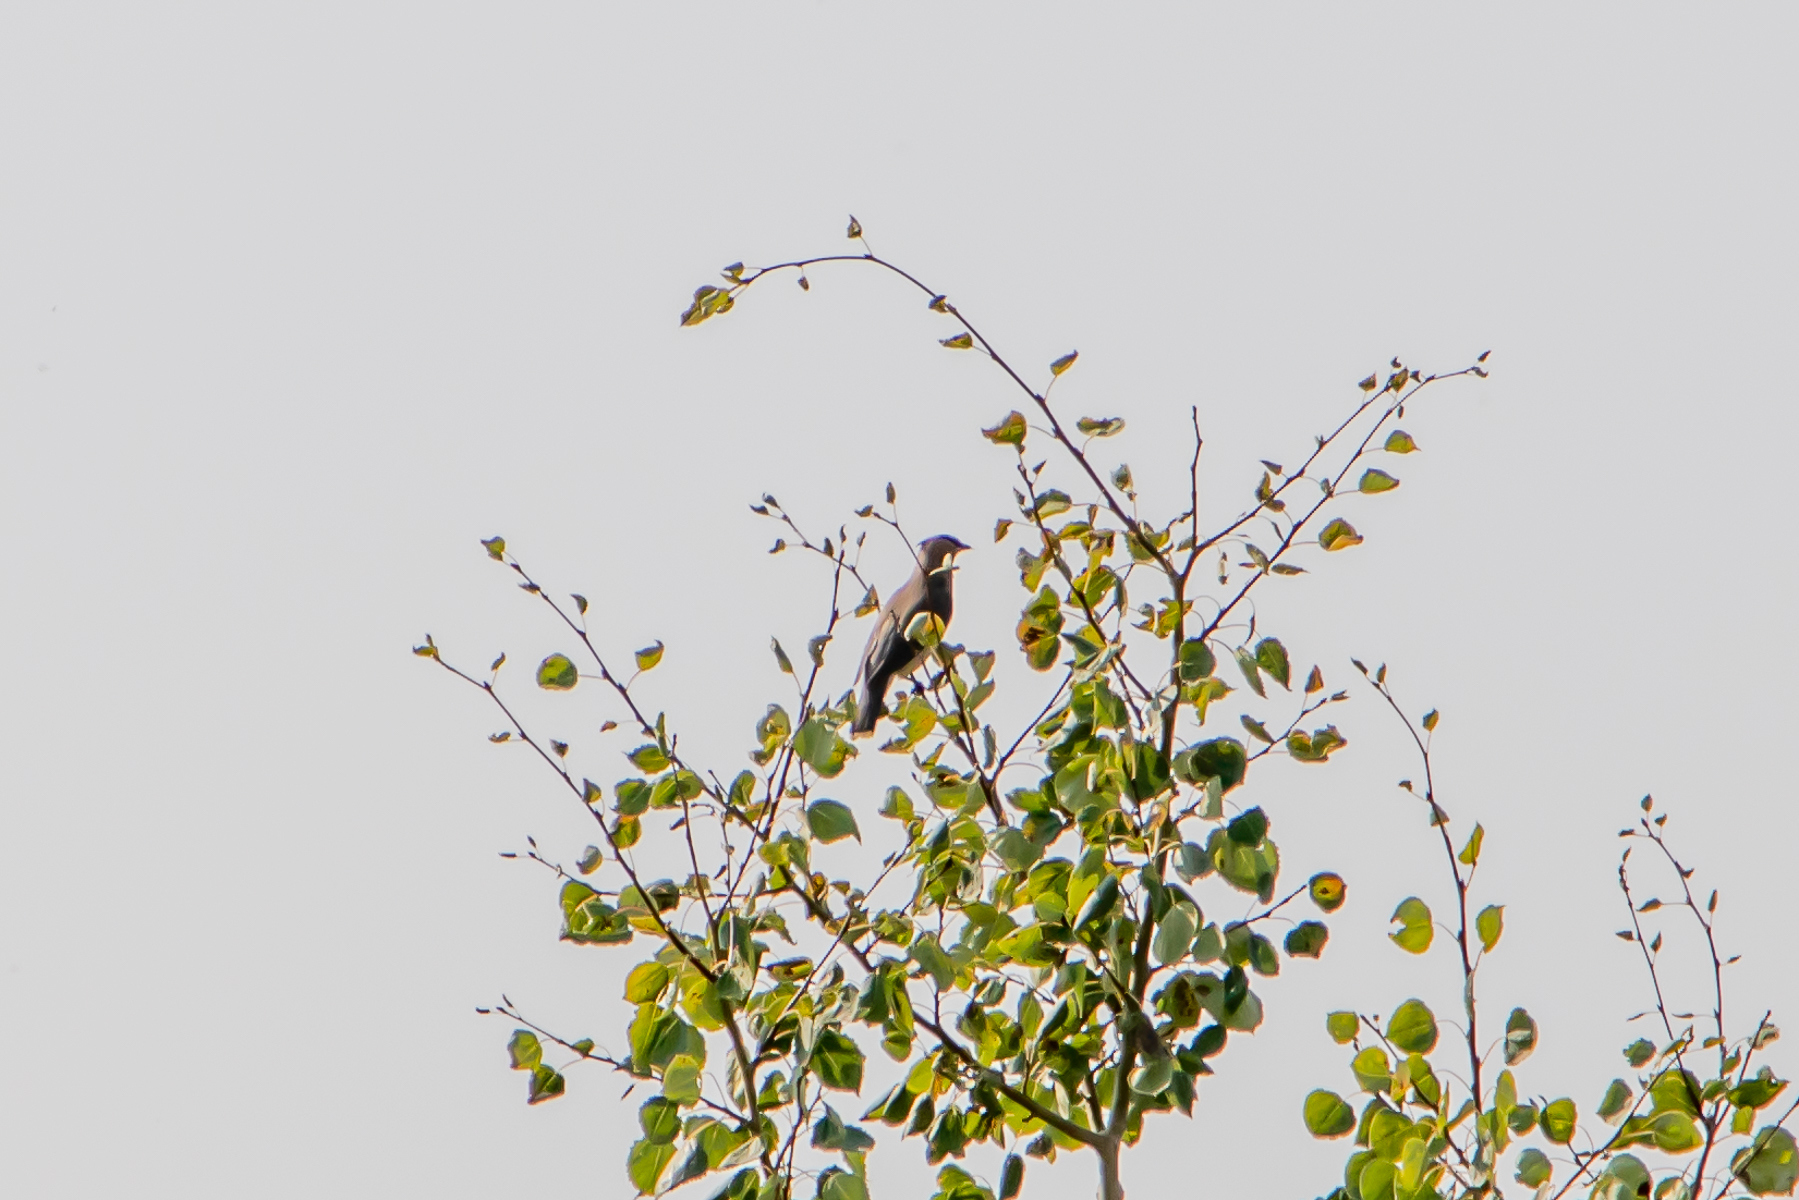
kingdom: Animalia
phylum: Chordata
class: Aves
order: Passeriformes
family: Bombycillidae
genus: Bombycilla
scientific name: Bombycilla cedrorum
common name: Cedar waxwing
